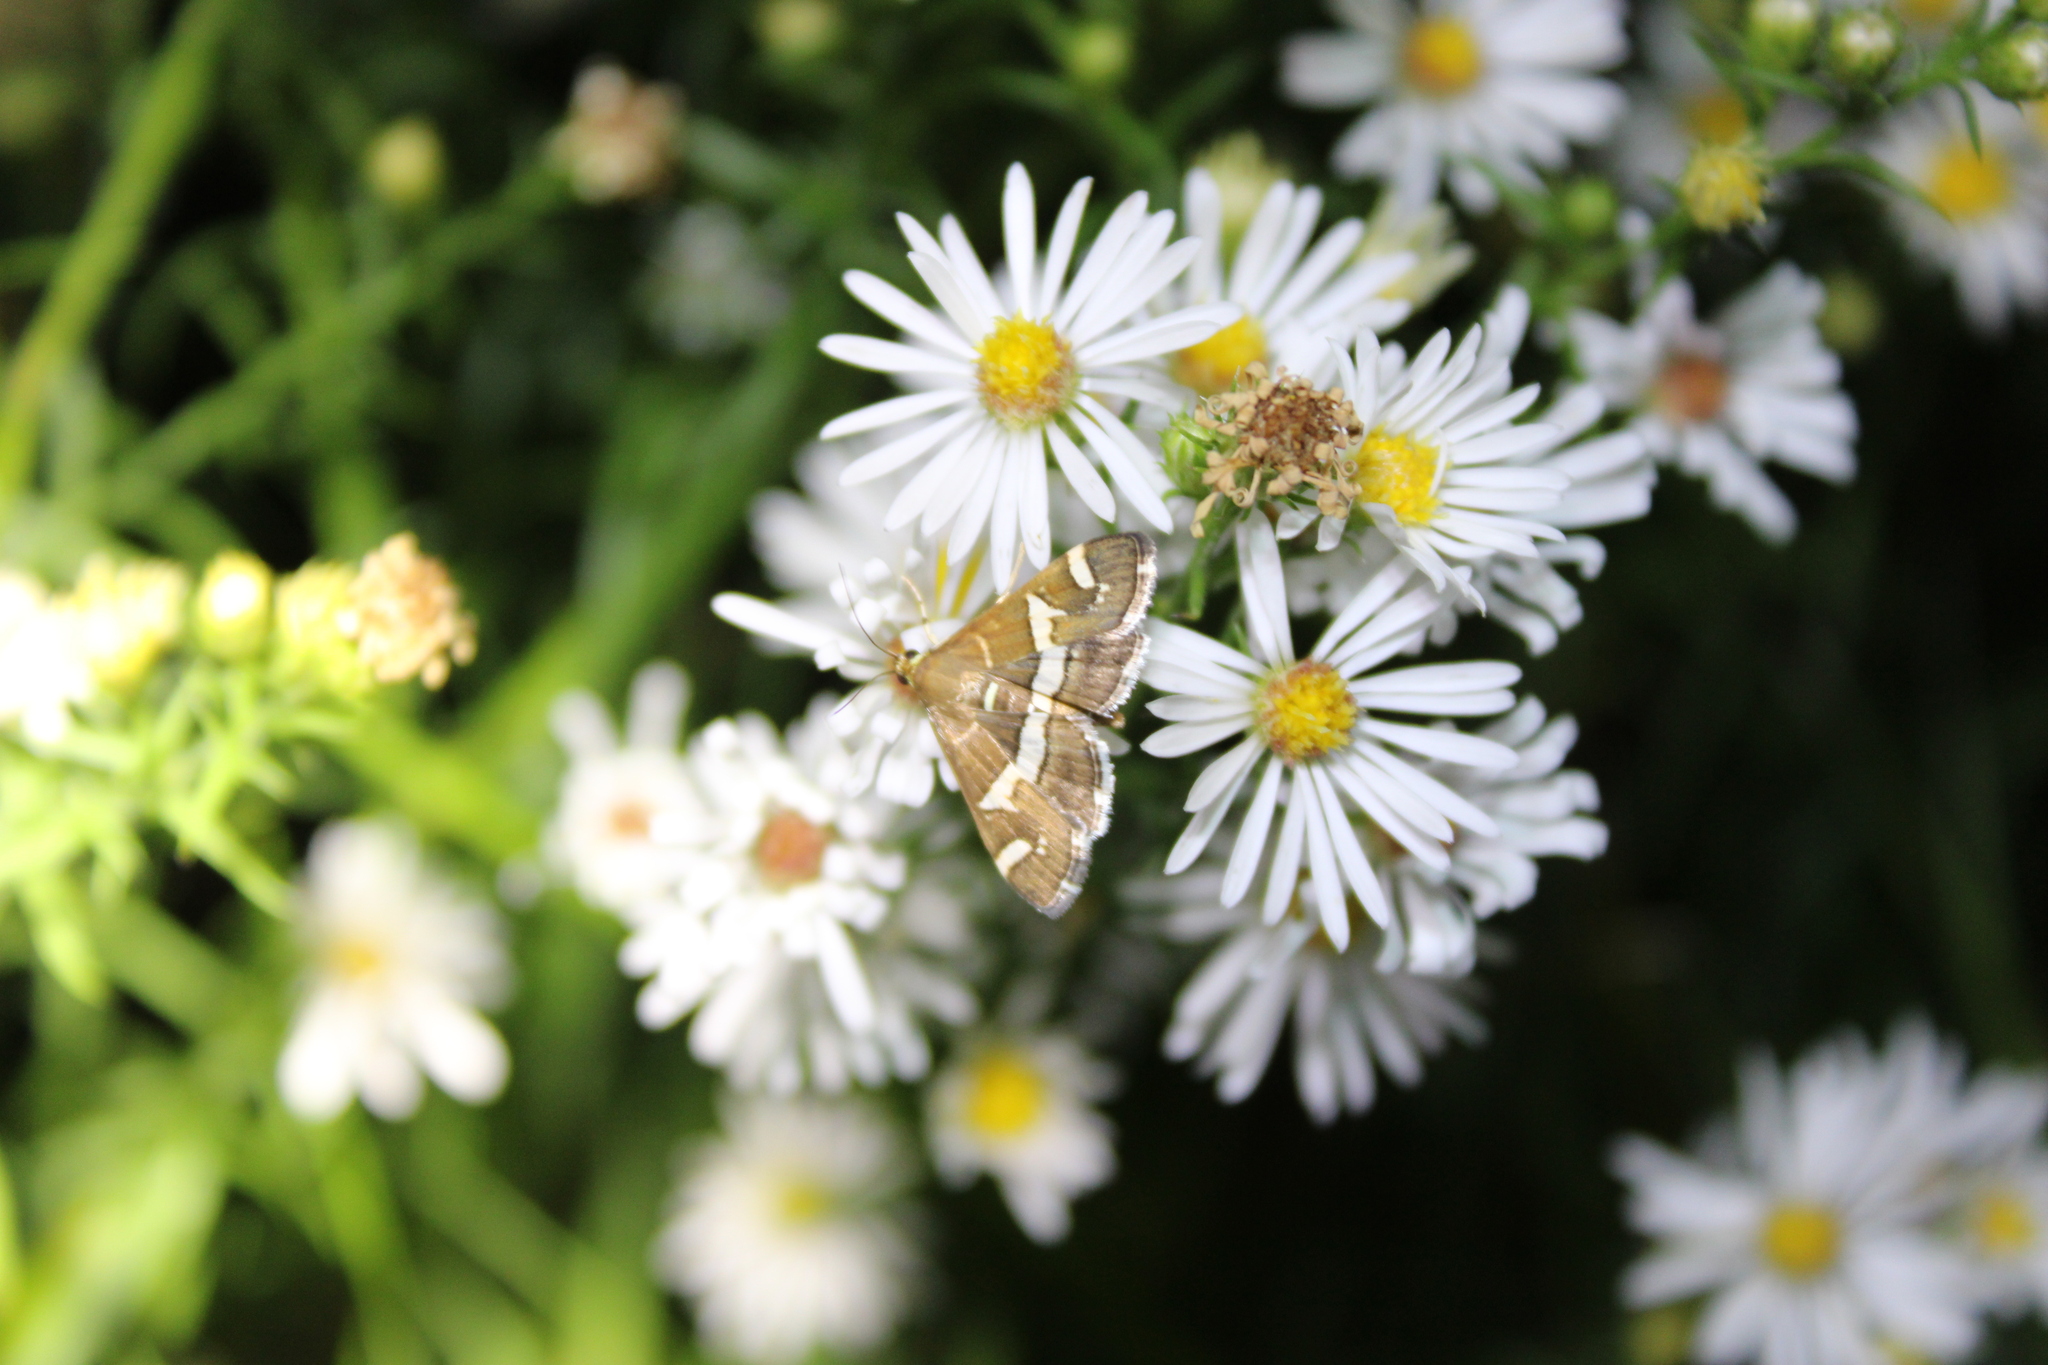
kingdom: Animalia
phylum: Arthropoda
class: Insecta
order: Lepidoptera
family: Crambidae
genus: Spoladea
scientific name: Spoladea recurvalis
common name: Beet webworm moth
